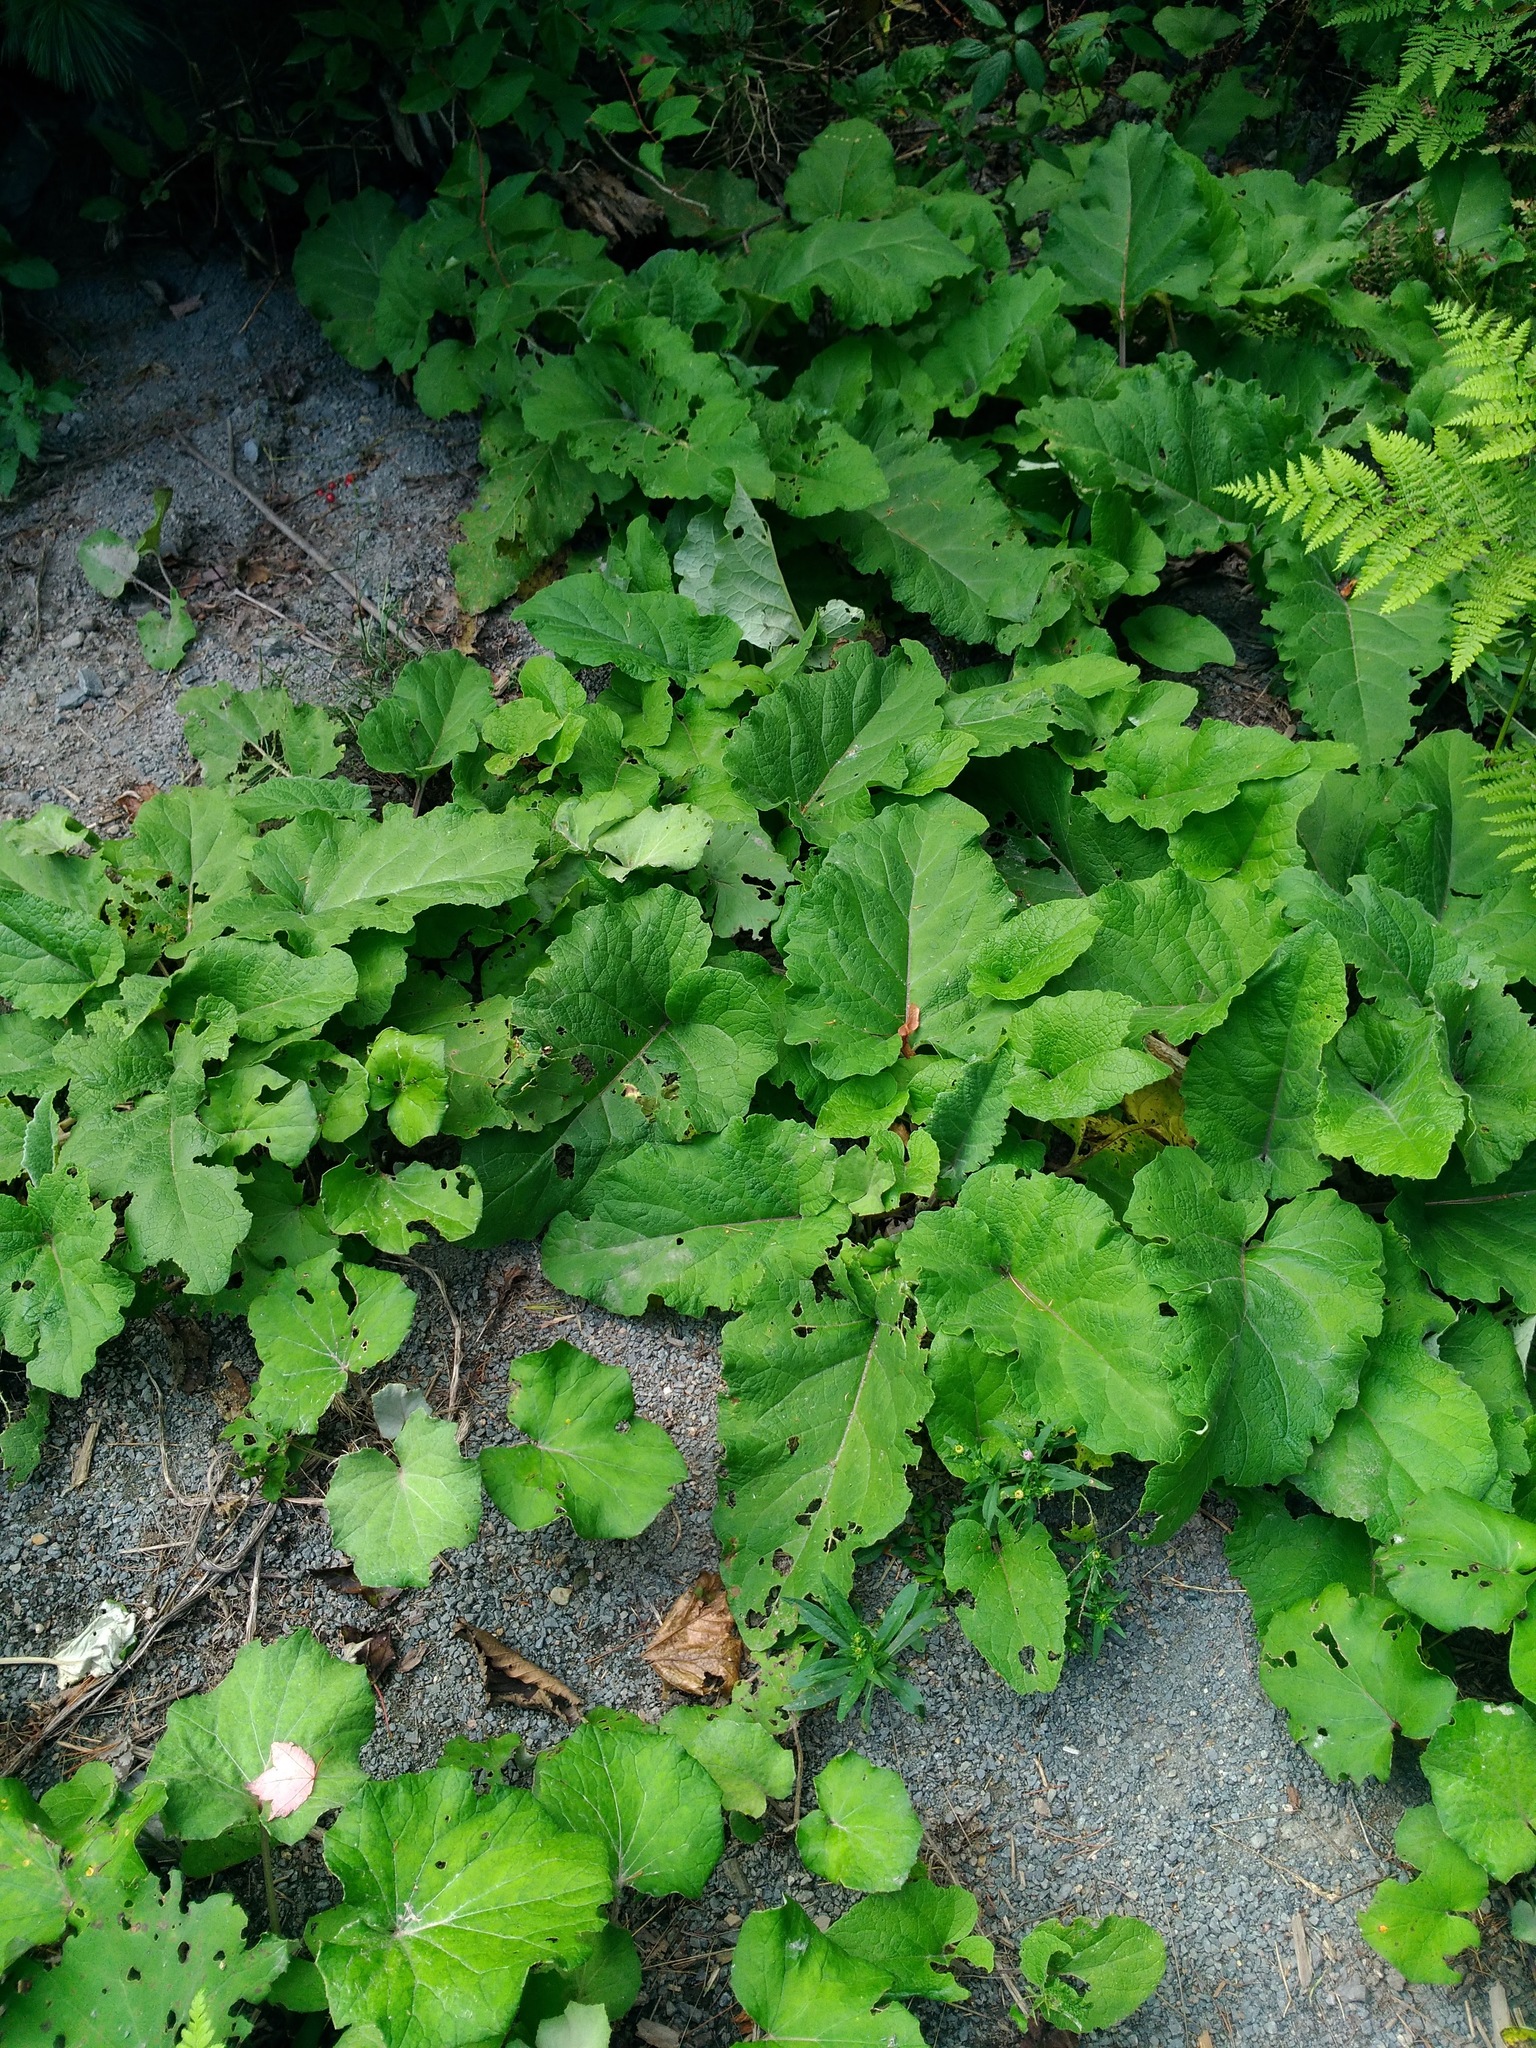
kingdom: Plantae
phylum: Tracheophyta
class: Magnoliopsida
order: Asterales
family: Asteraceae
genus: Arctium
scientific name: Arctium minus
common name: Lesser burdock
